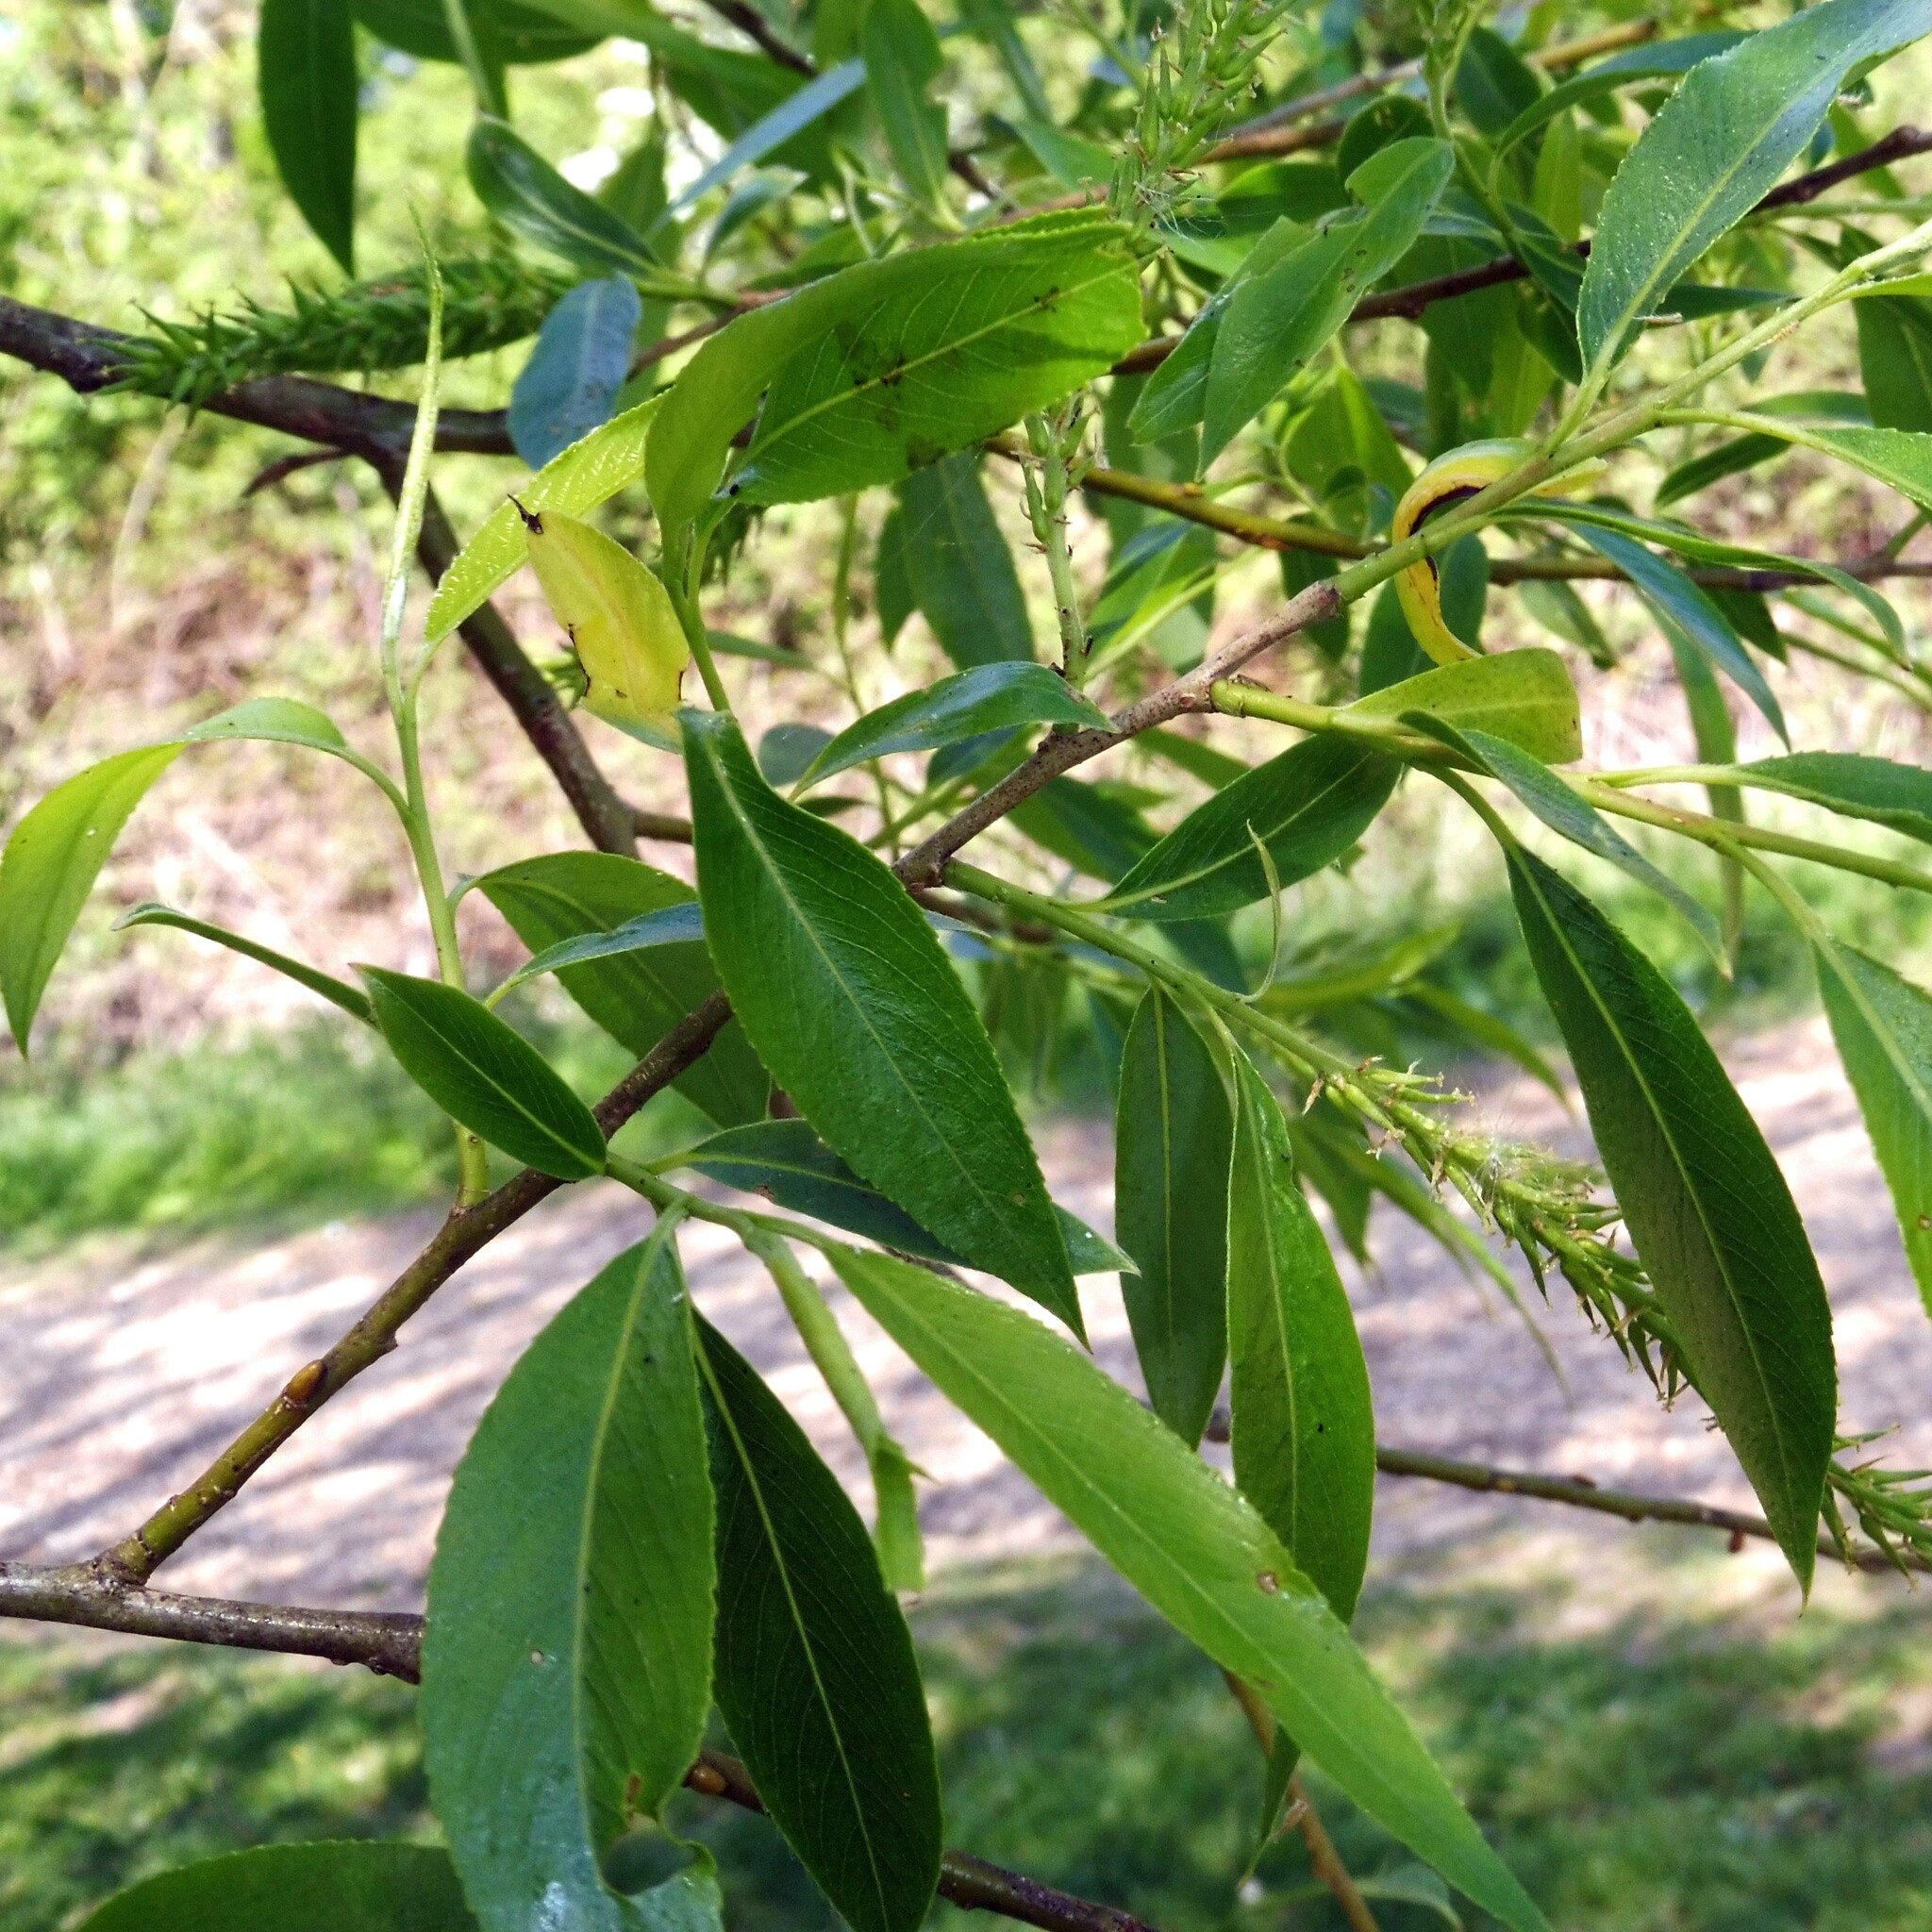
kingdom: Plantae
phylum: Tracheophyta
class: Magnoliopsida
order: Malpighiales
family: Salicaceae
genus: Salix
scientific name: Salix fragilis
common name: Crack willow
